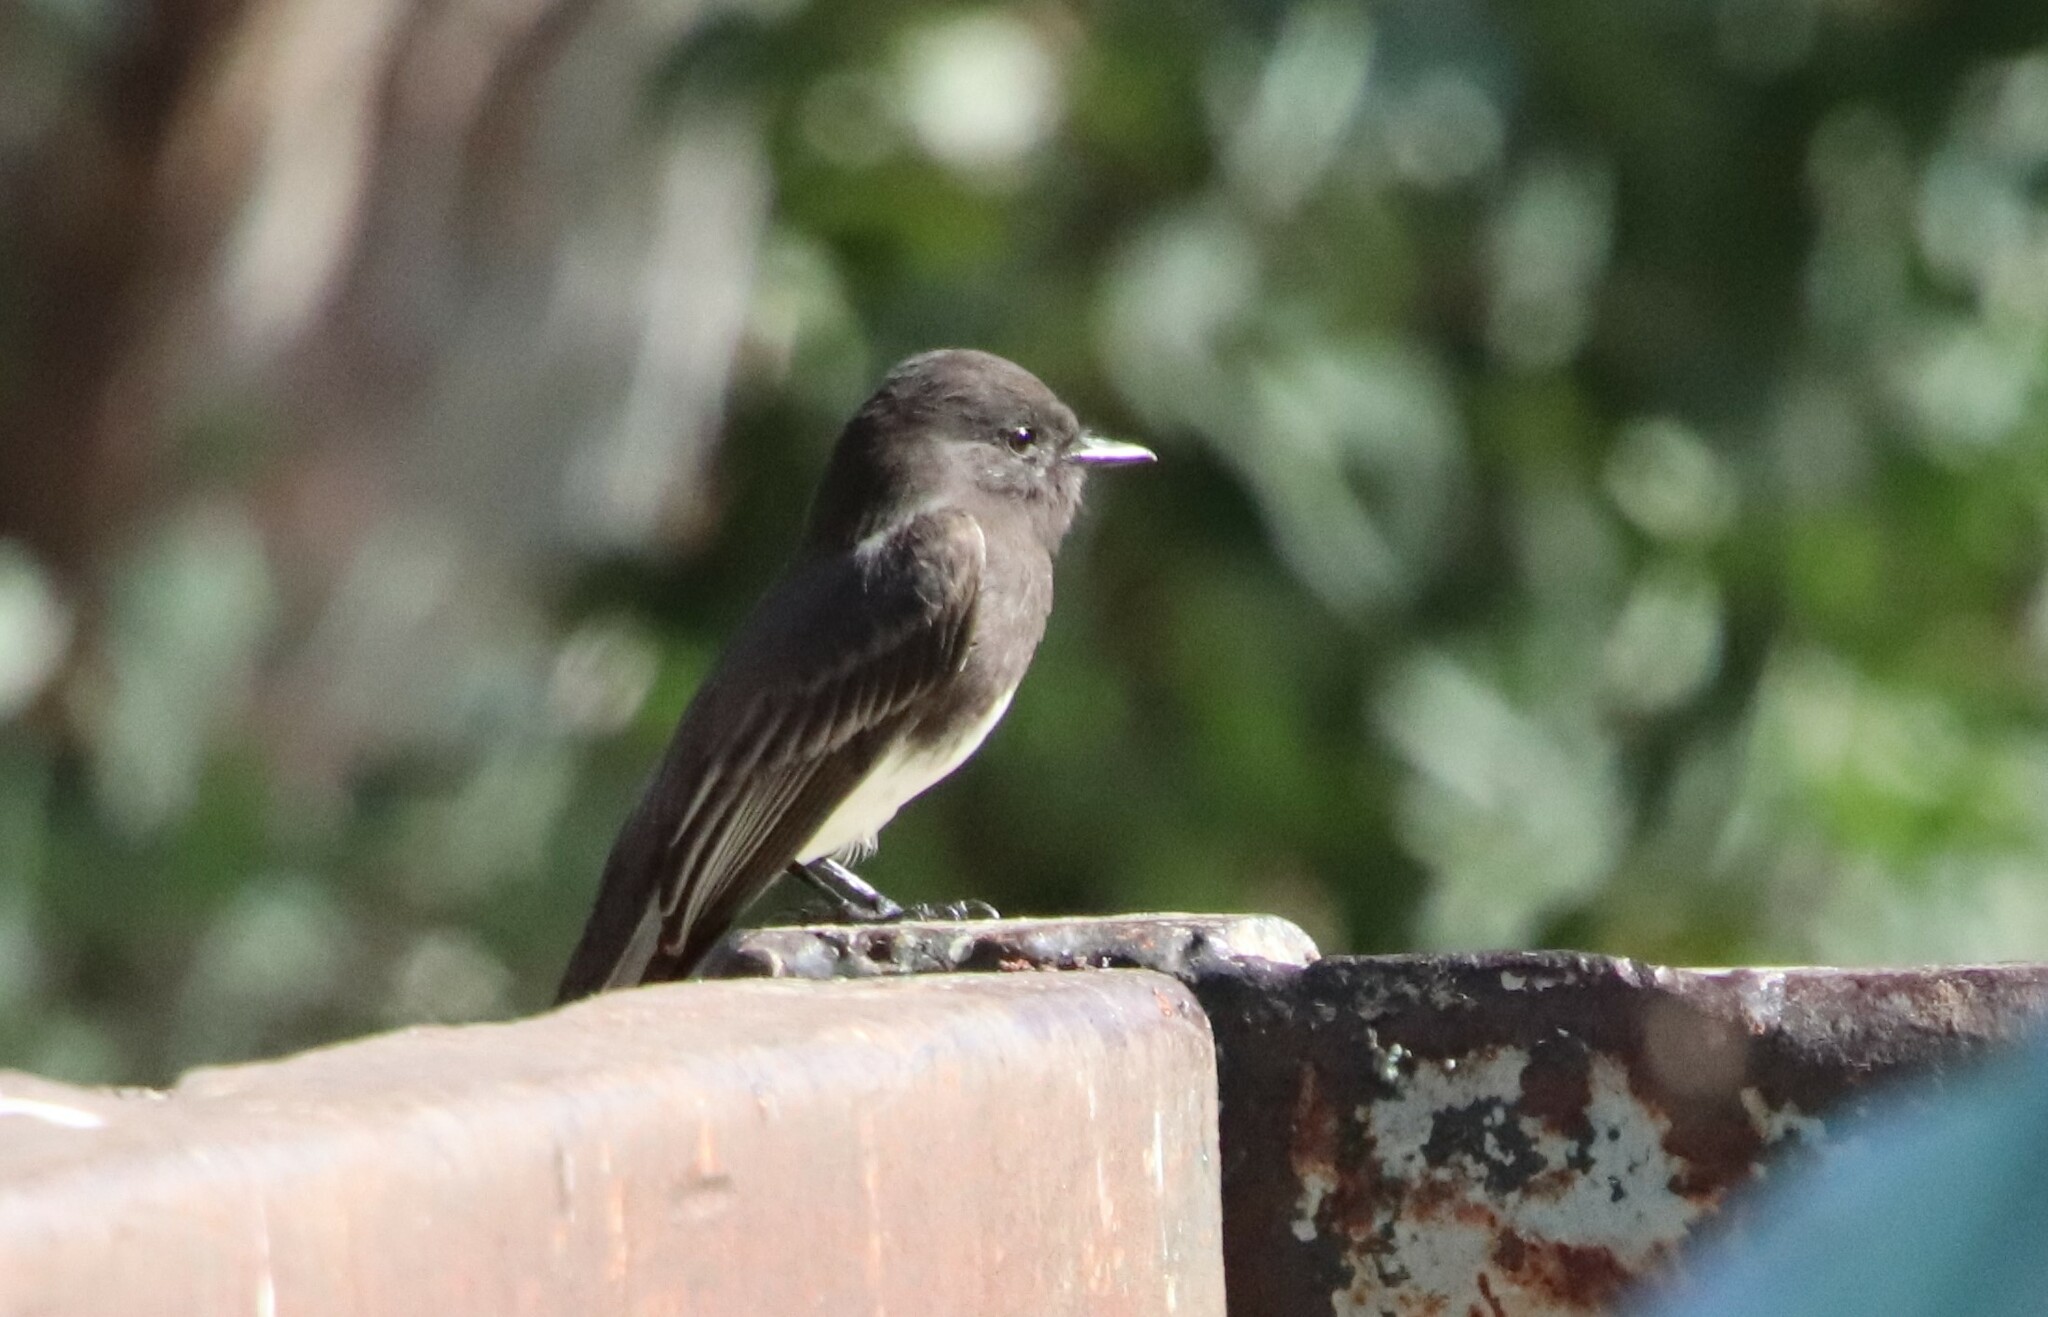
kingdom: Animalia
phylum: Chordata
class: Aves
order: Passeriformes
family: Tyrannidae
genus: Sayornis
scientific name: Sayornis nigricans
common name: Black phoebe
